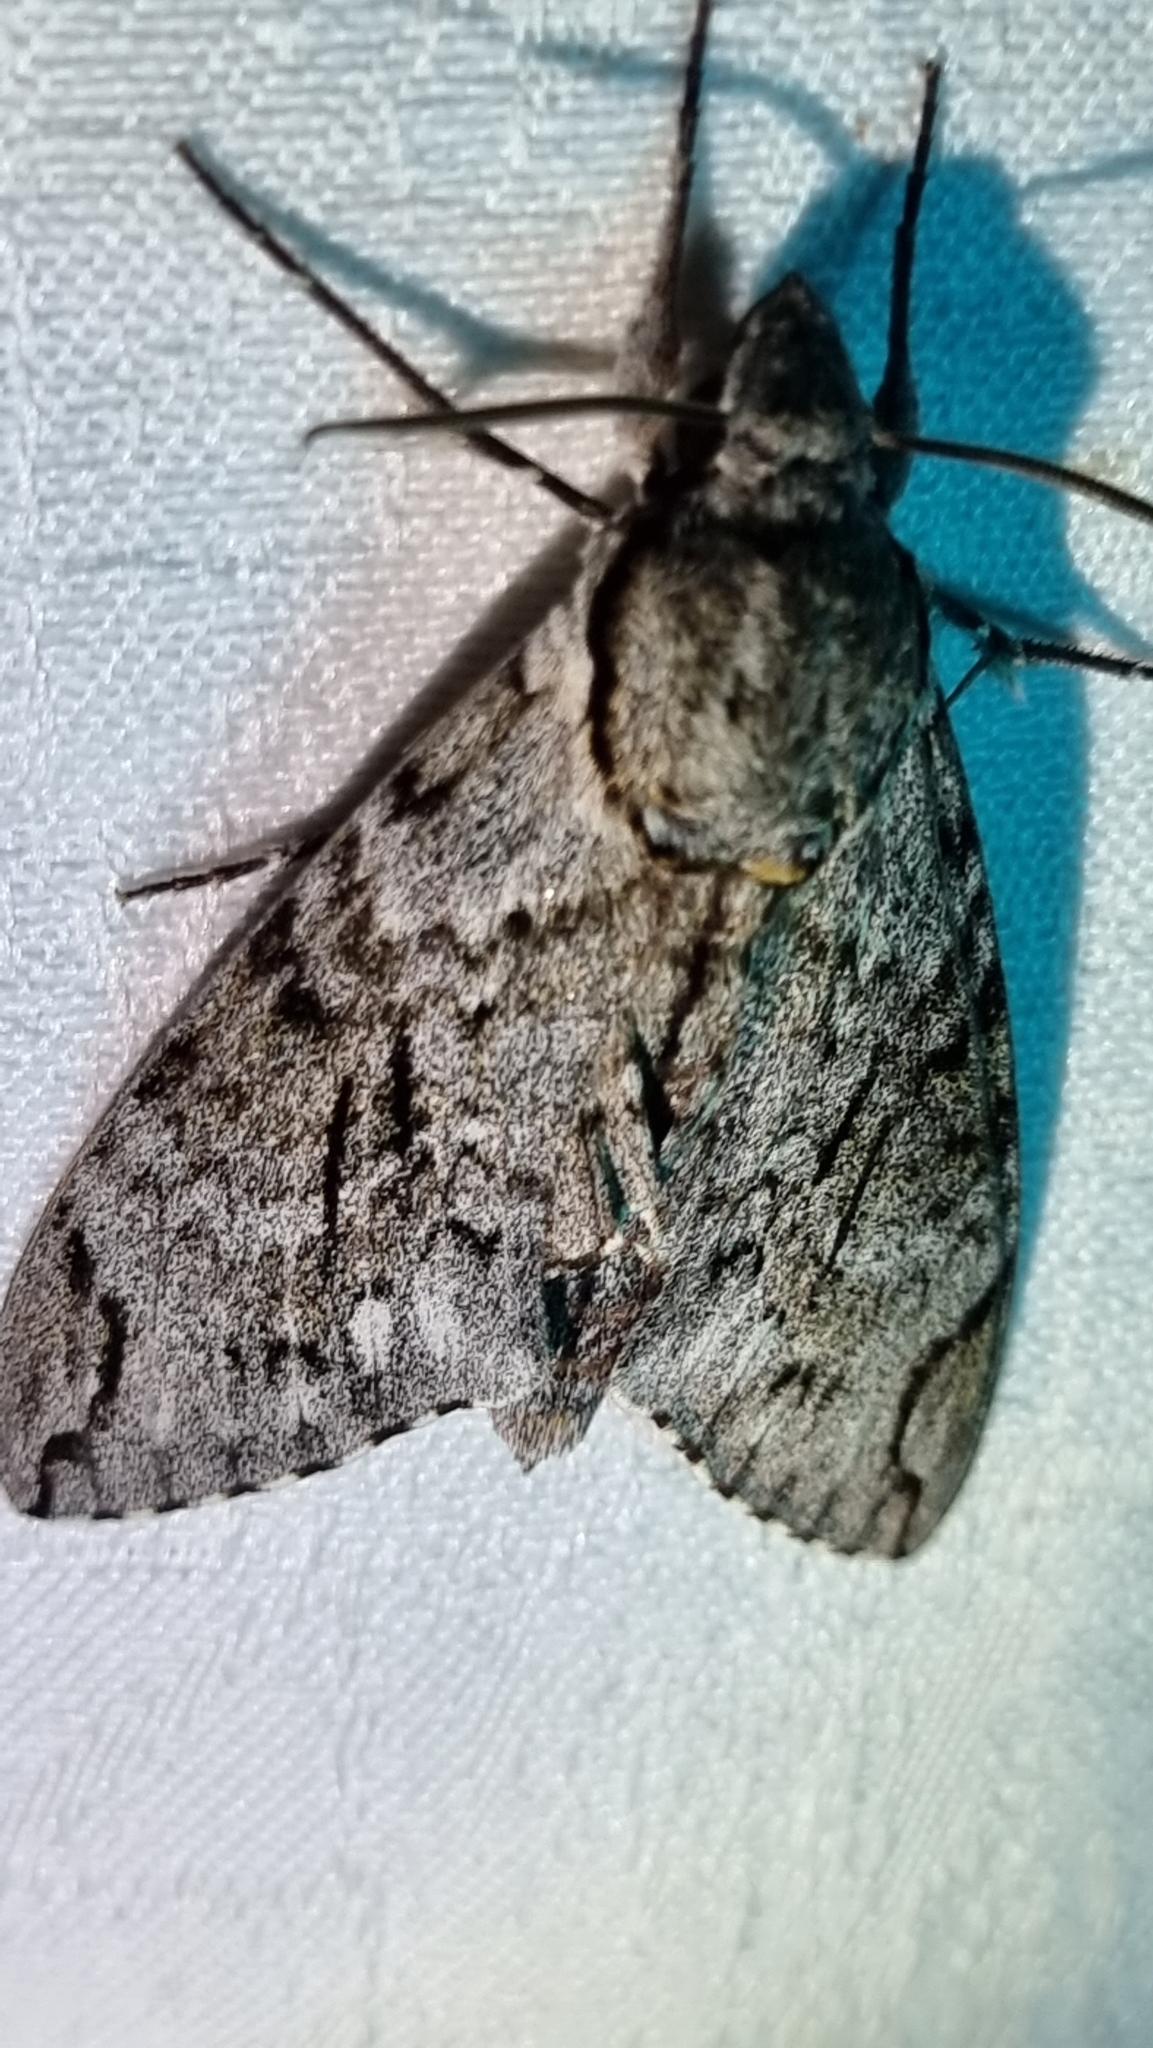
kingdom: Animalia
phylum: Arthropoda
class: Insecta
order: Lepidoptera
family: Sphingidae
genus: Psilogramma
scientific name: Psilogramma casuarinae
